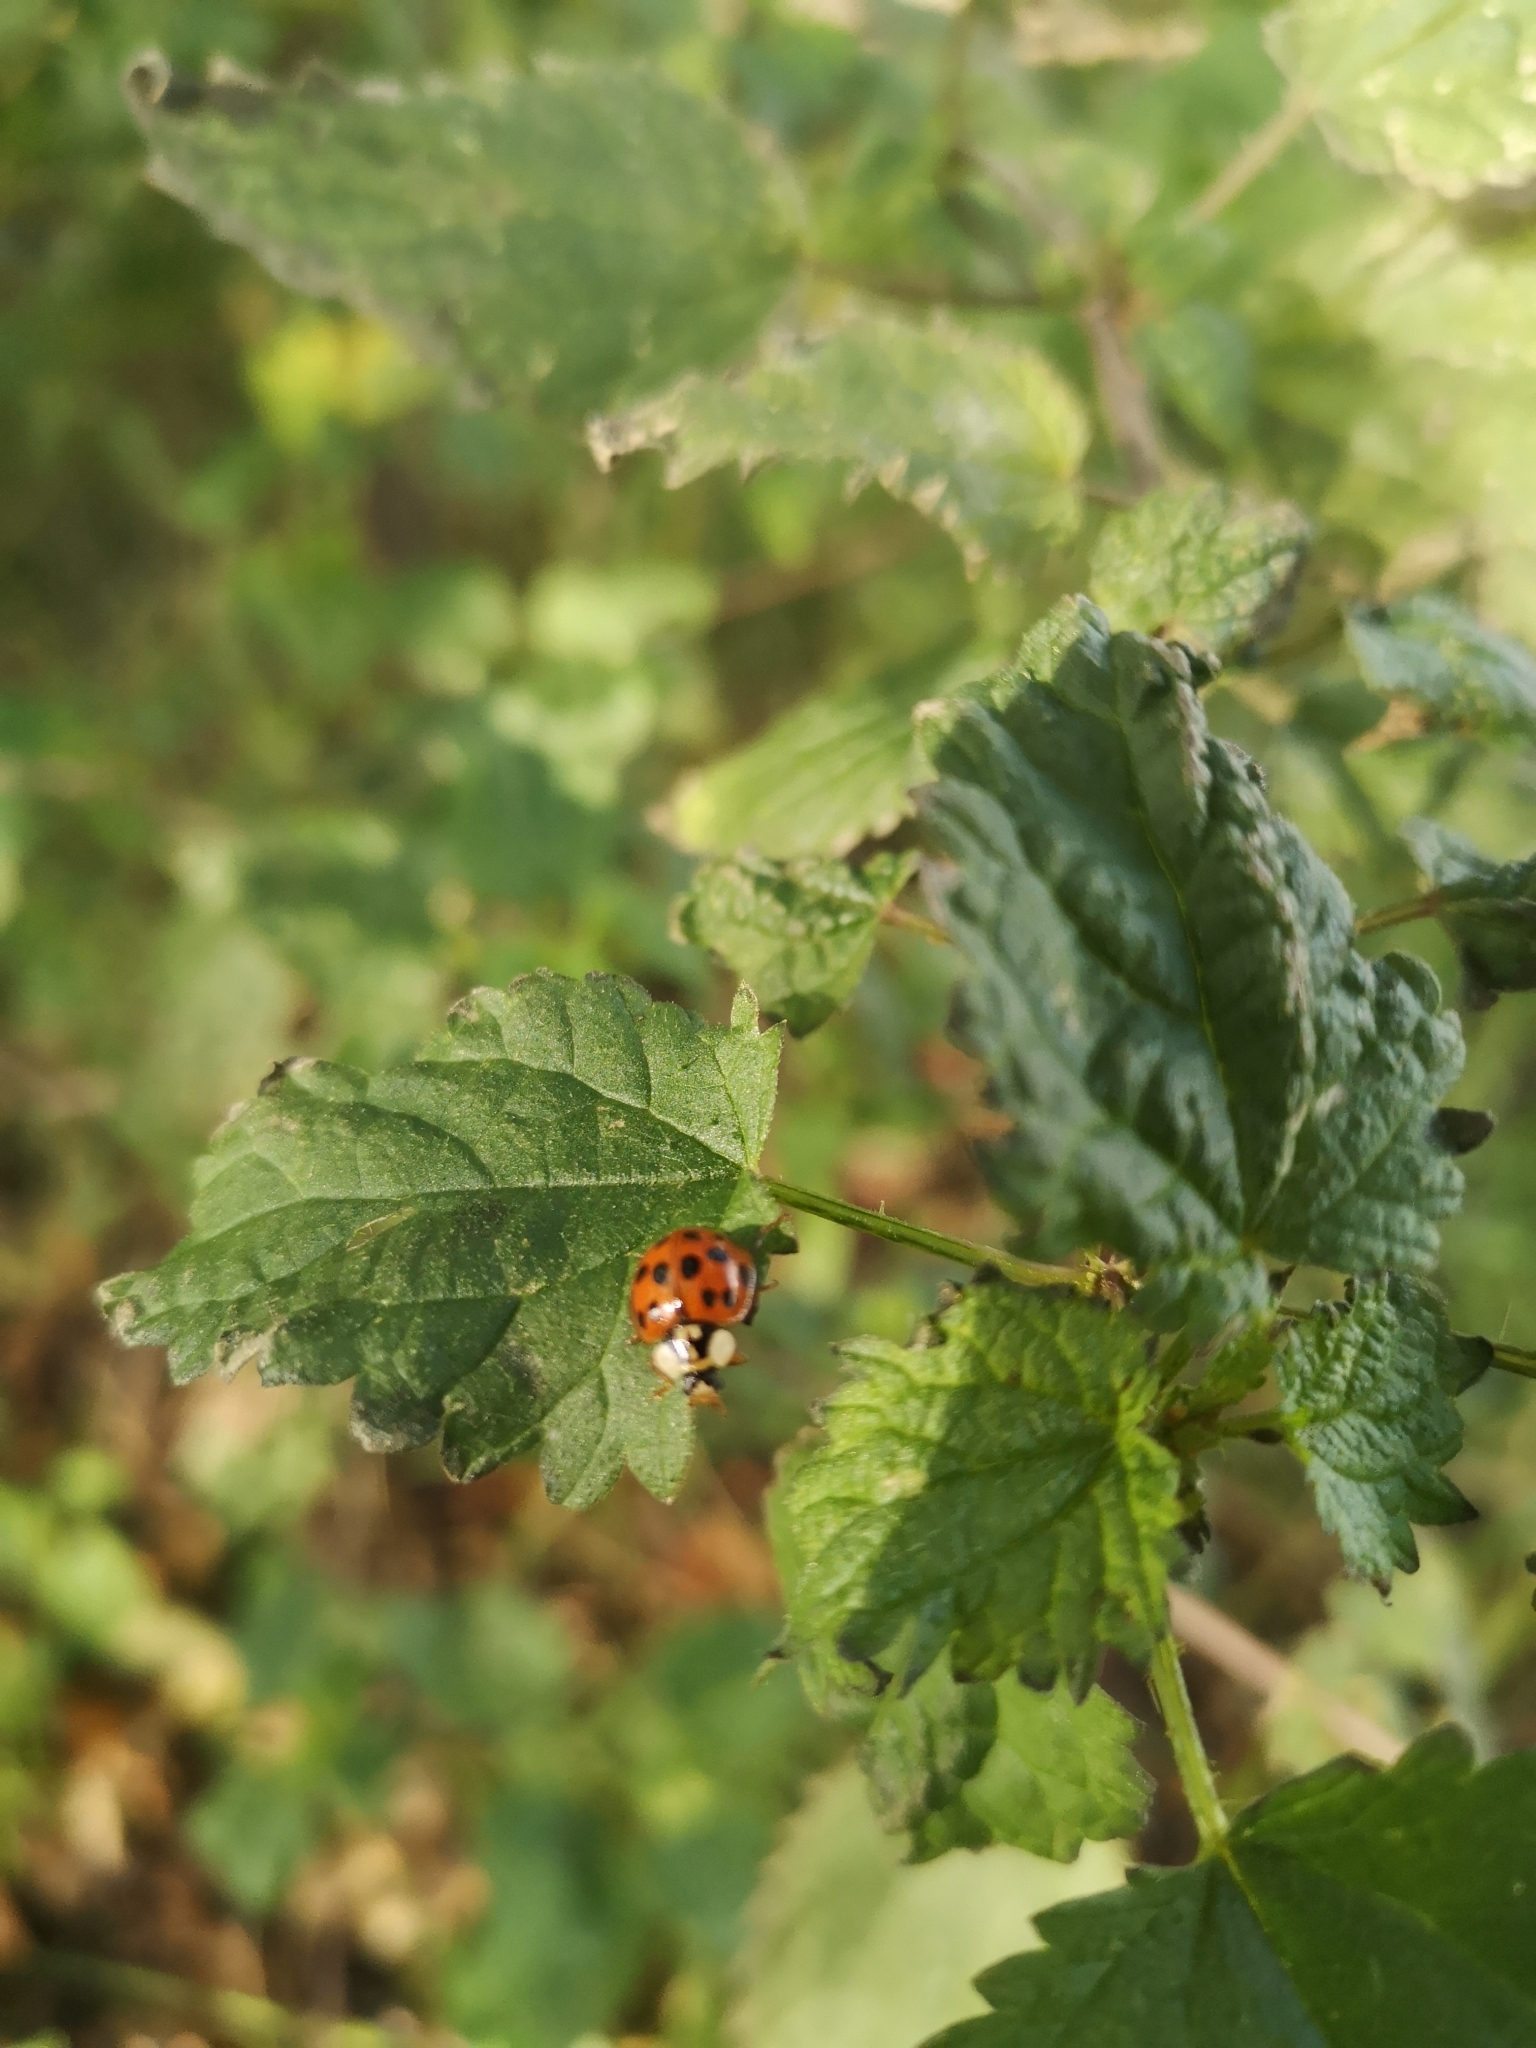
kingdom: Animalia
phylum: Arthropoda
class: Insecta
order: Coleoptera
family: Coccinellidae
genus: Harmonia
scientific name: Harmonia axyridis
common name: Harlequin ladybird
